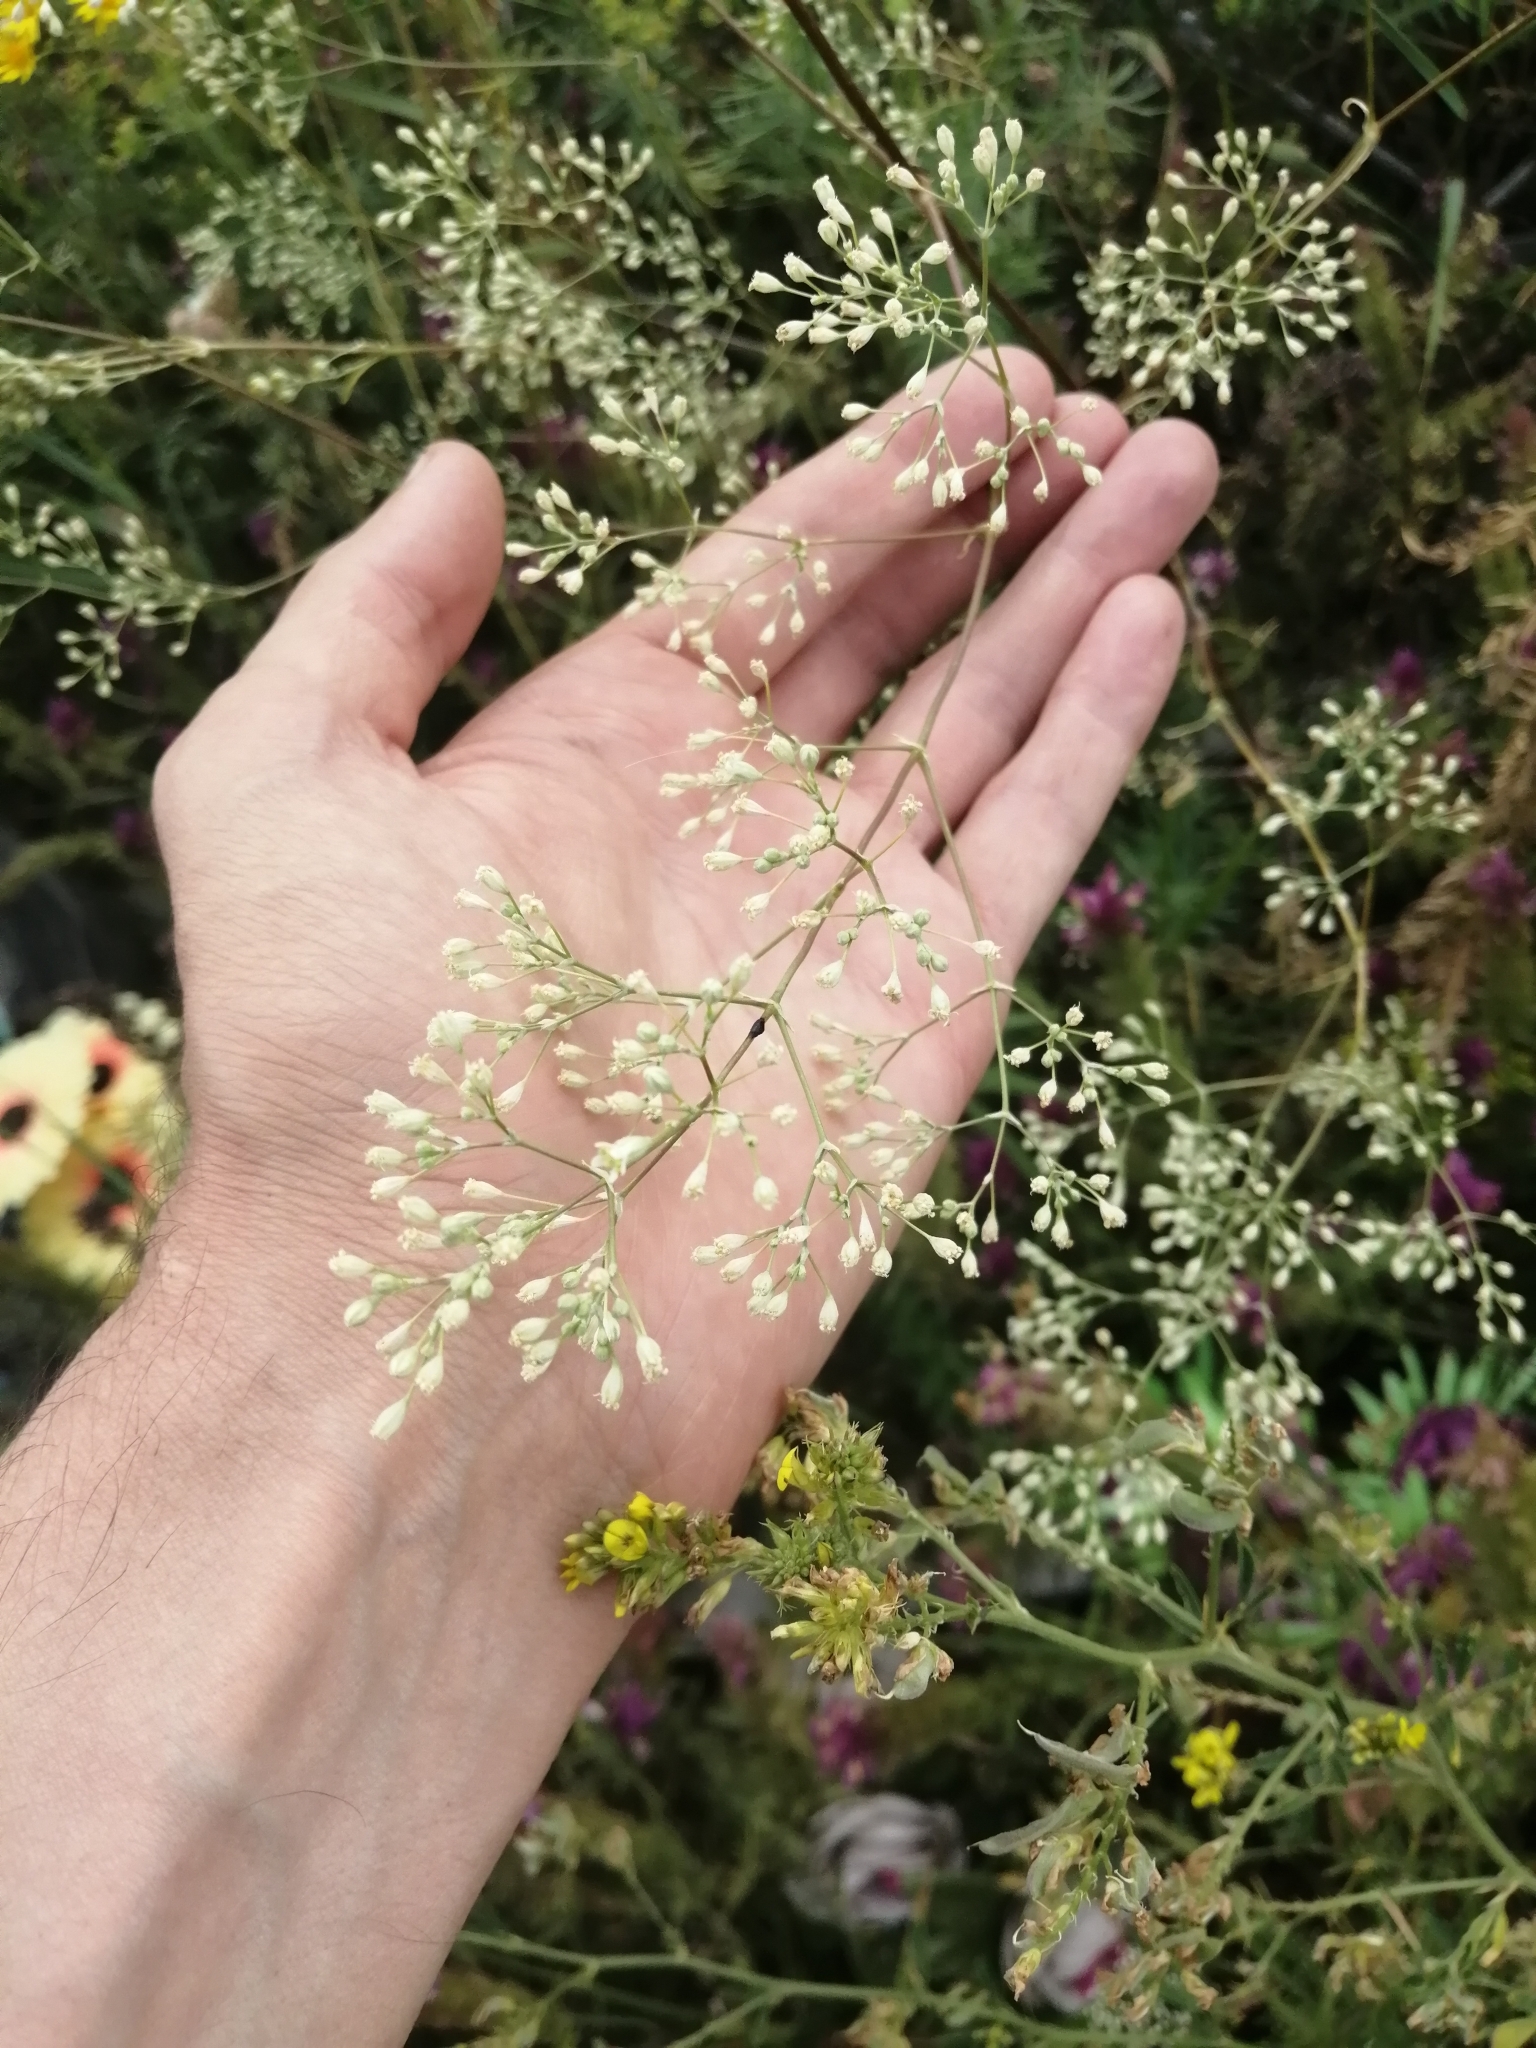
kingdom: Plantae
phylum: Tracheophyta
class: Magnoliopsida
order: Caryophyllales
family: Caryophyllaceae
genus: Silene
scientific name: Silene wolgensis
